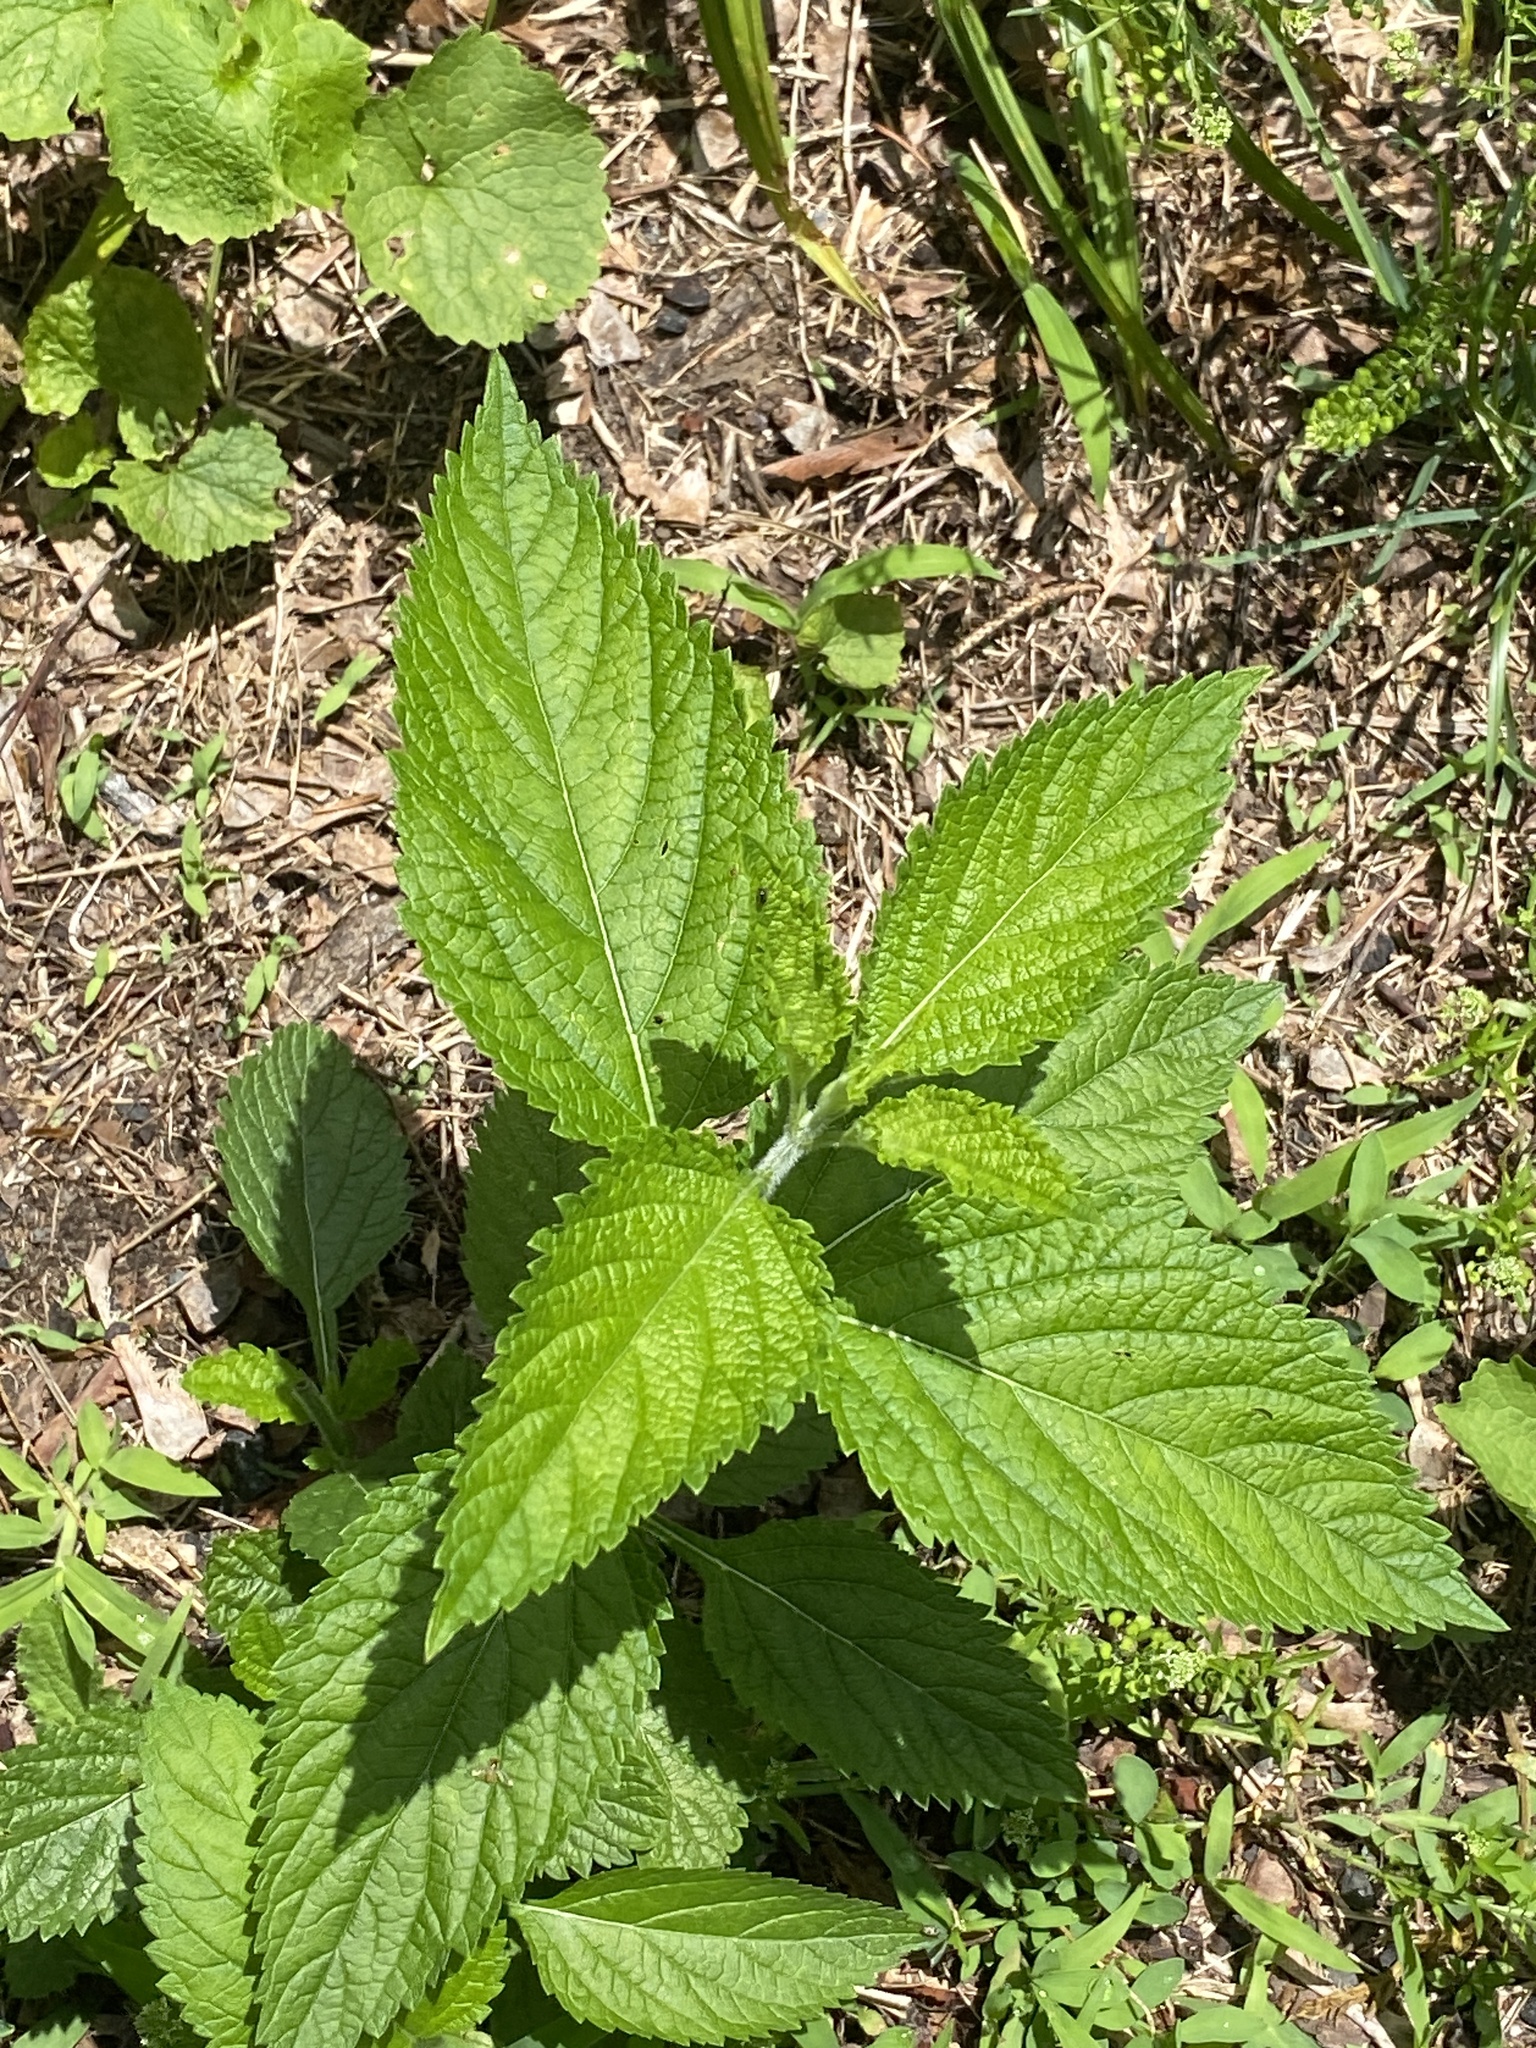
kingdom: Plantae
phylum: Tracheophyta
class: Magnoliopsida
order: Lamiales
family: Verbenaceae
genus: Verbena
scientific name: Verbena urticifolia
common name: Nettle-leaved vervain
